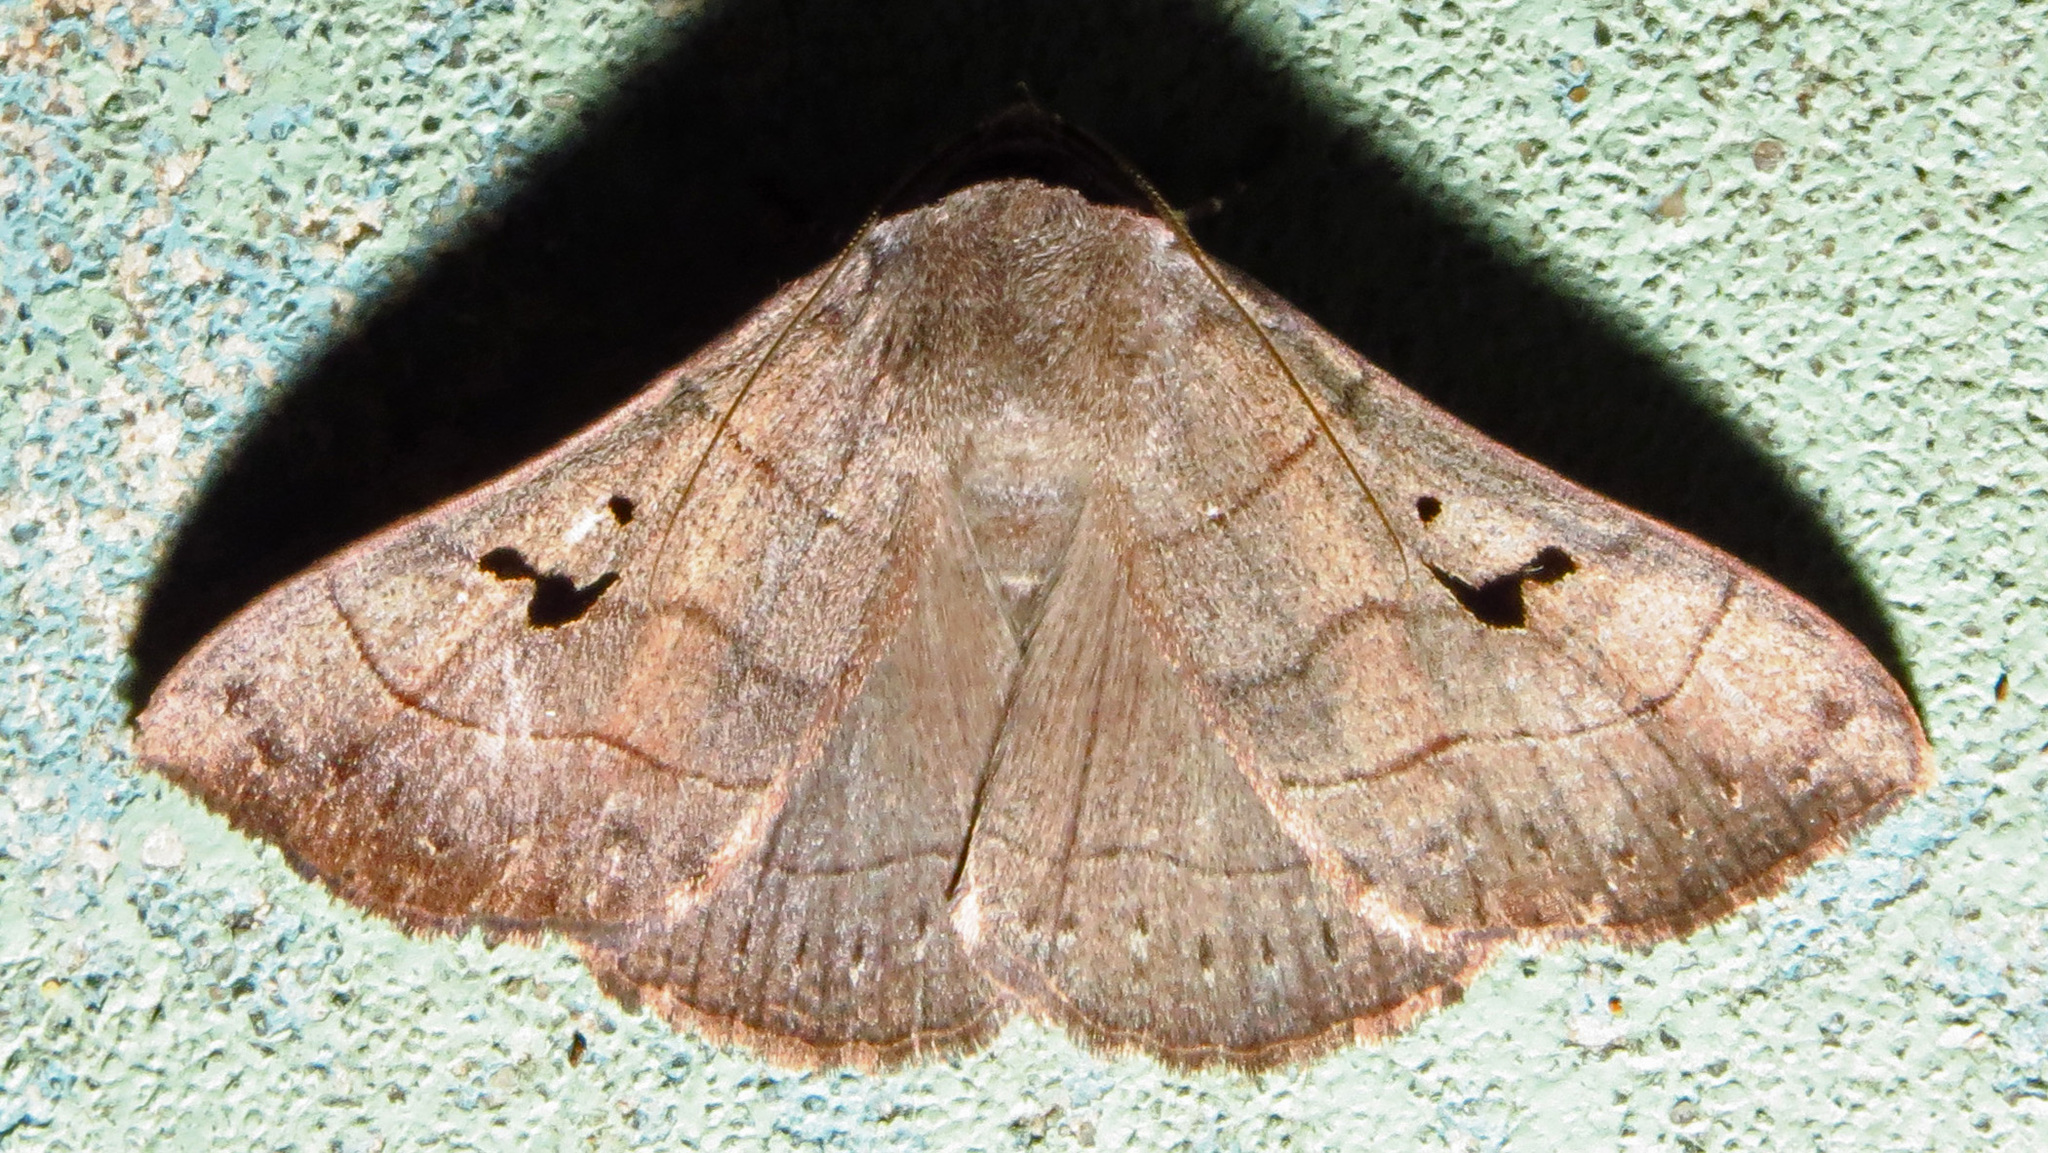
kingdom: Animalia
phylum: Arthropoda
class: Insecta
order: Lepidoptera
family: Erebidae
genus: Panopoda
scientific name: Panopoda carneicosta
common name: Brown panopoda moth
